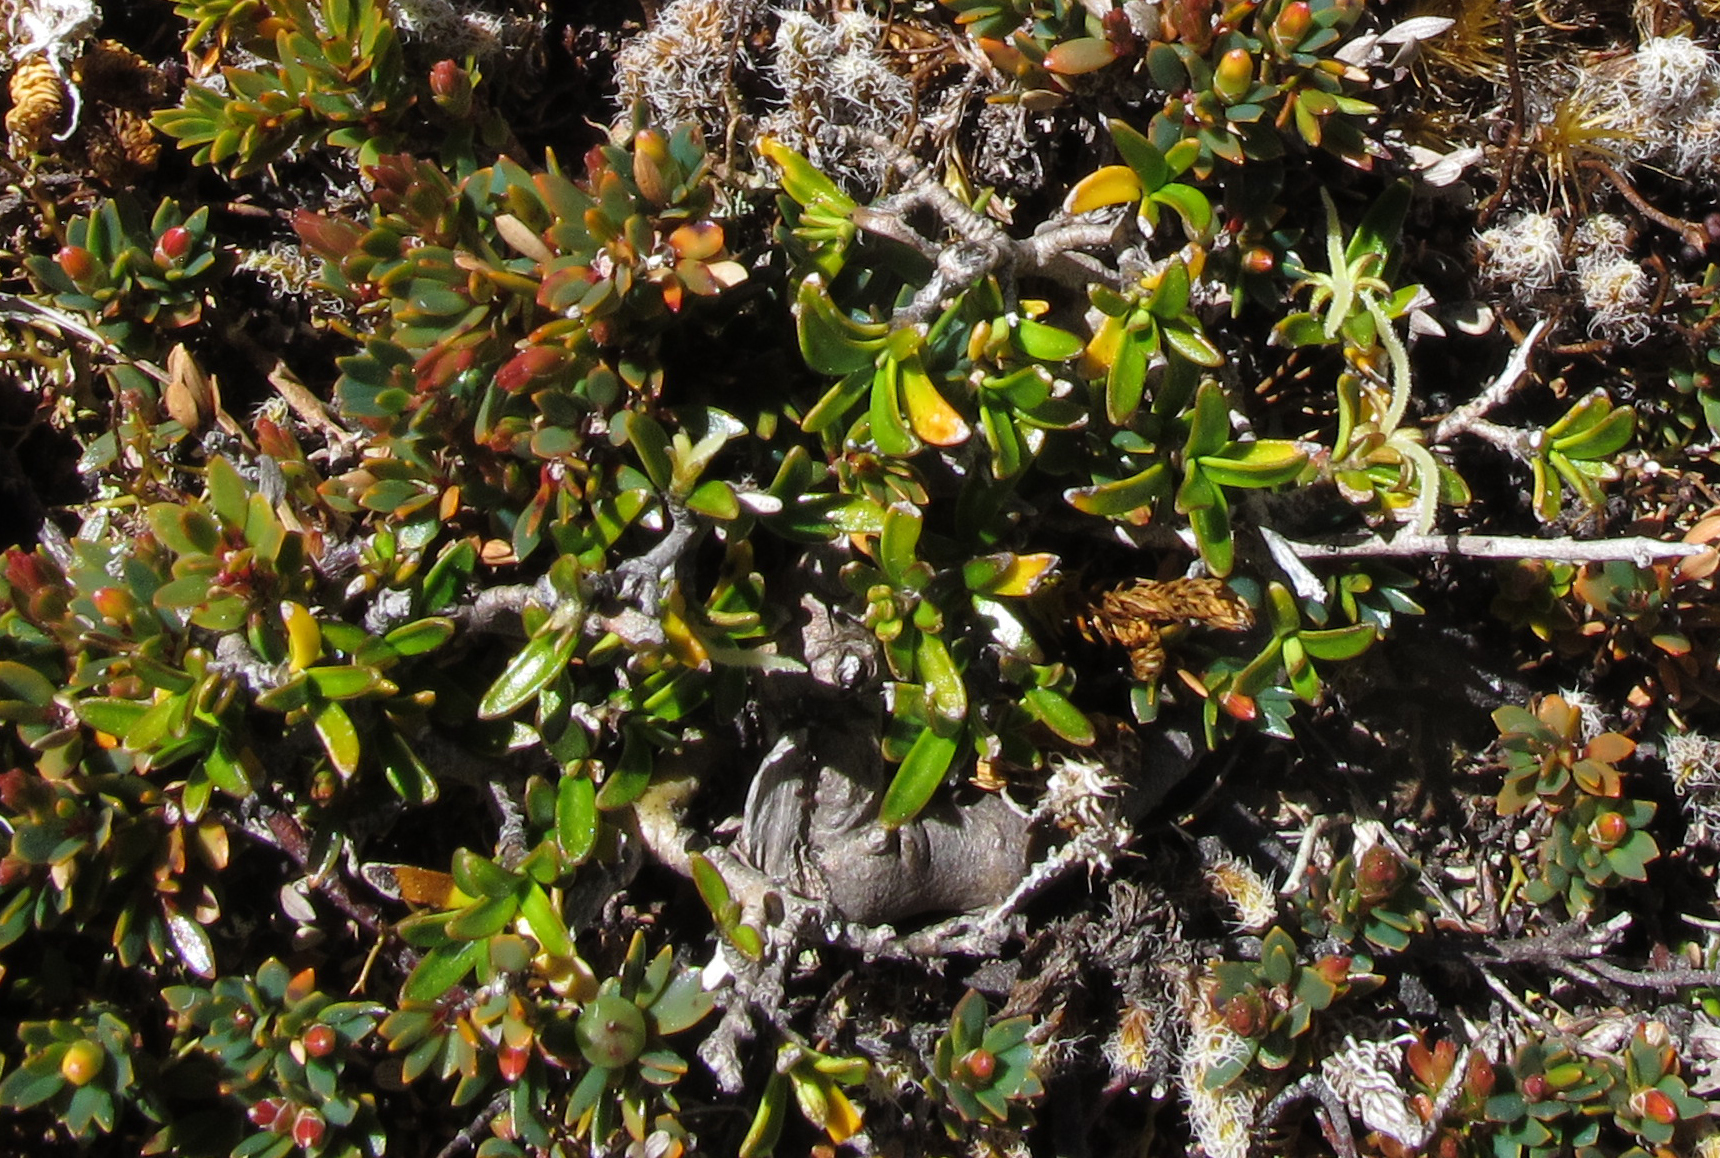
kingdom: Plantae
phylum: Tracheophyta
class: Magnoliopsida
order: Gentianales
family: Rubiaceae
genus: Coprosma
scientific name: Coprosma cheesemanii
